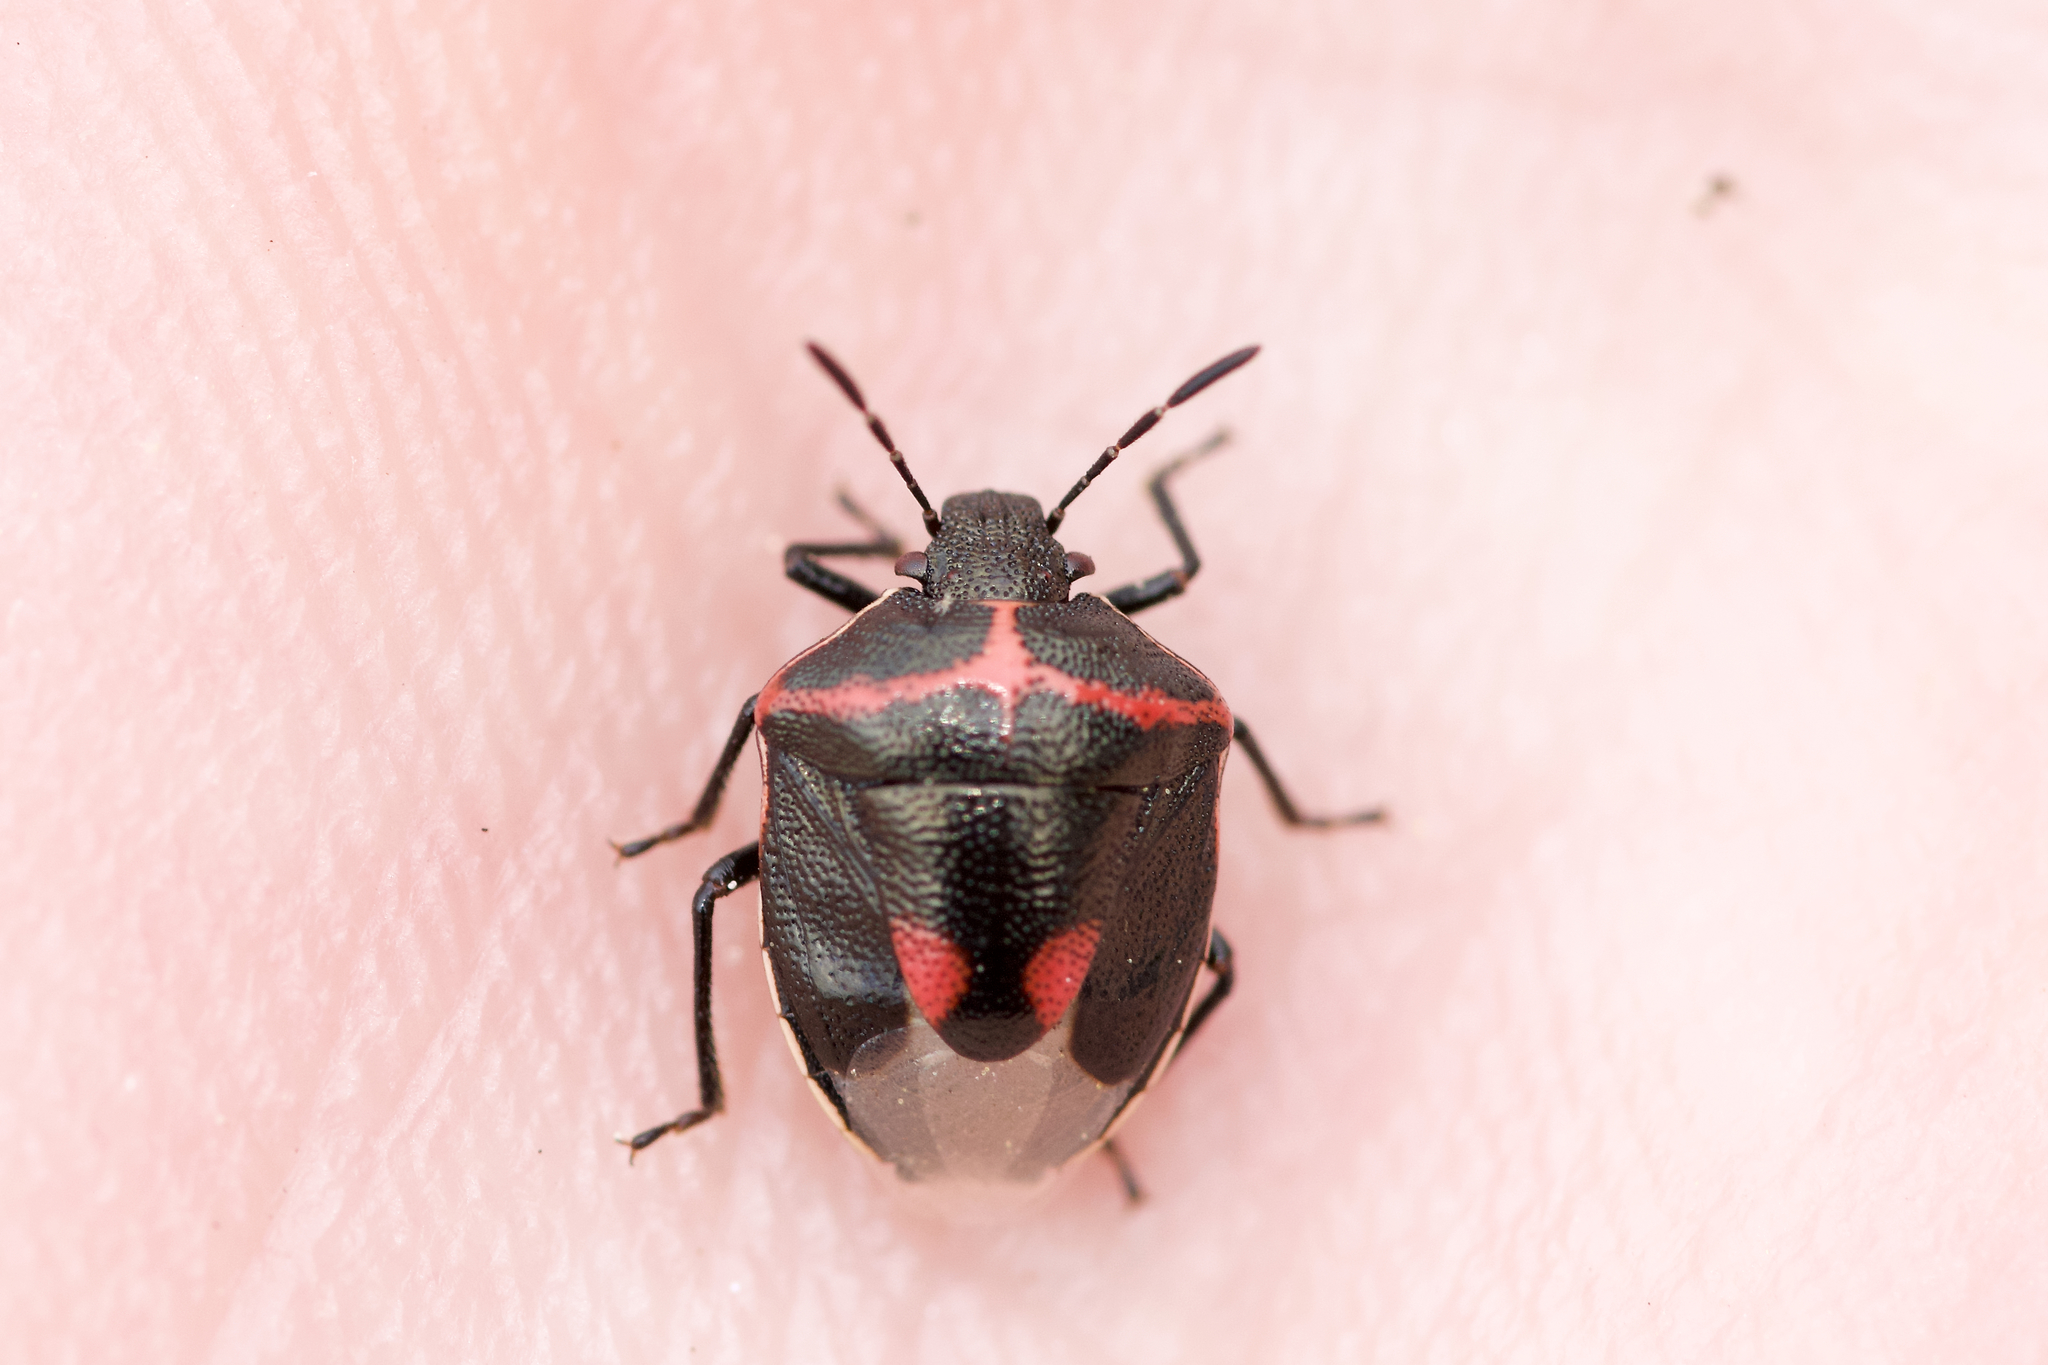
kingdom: Animalia
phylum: Arthropoda
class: Insecta
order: Hemiptera
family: Pentatomidae
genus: Cosmopepla
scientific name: Cosmopepla lintneriana
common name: Twice-stabbed stink bug
